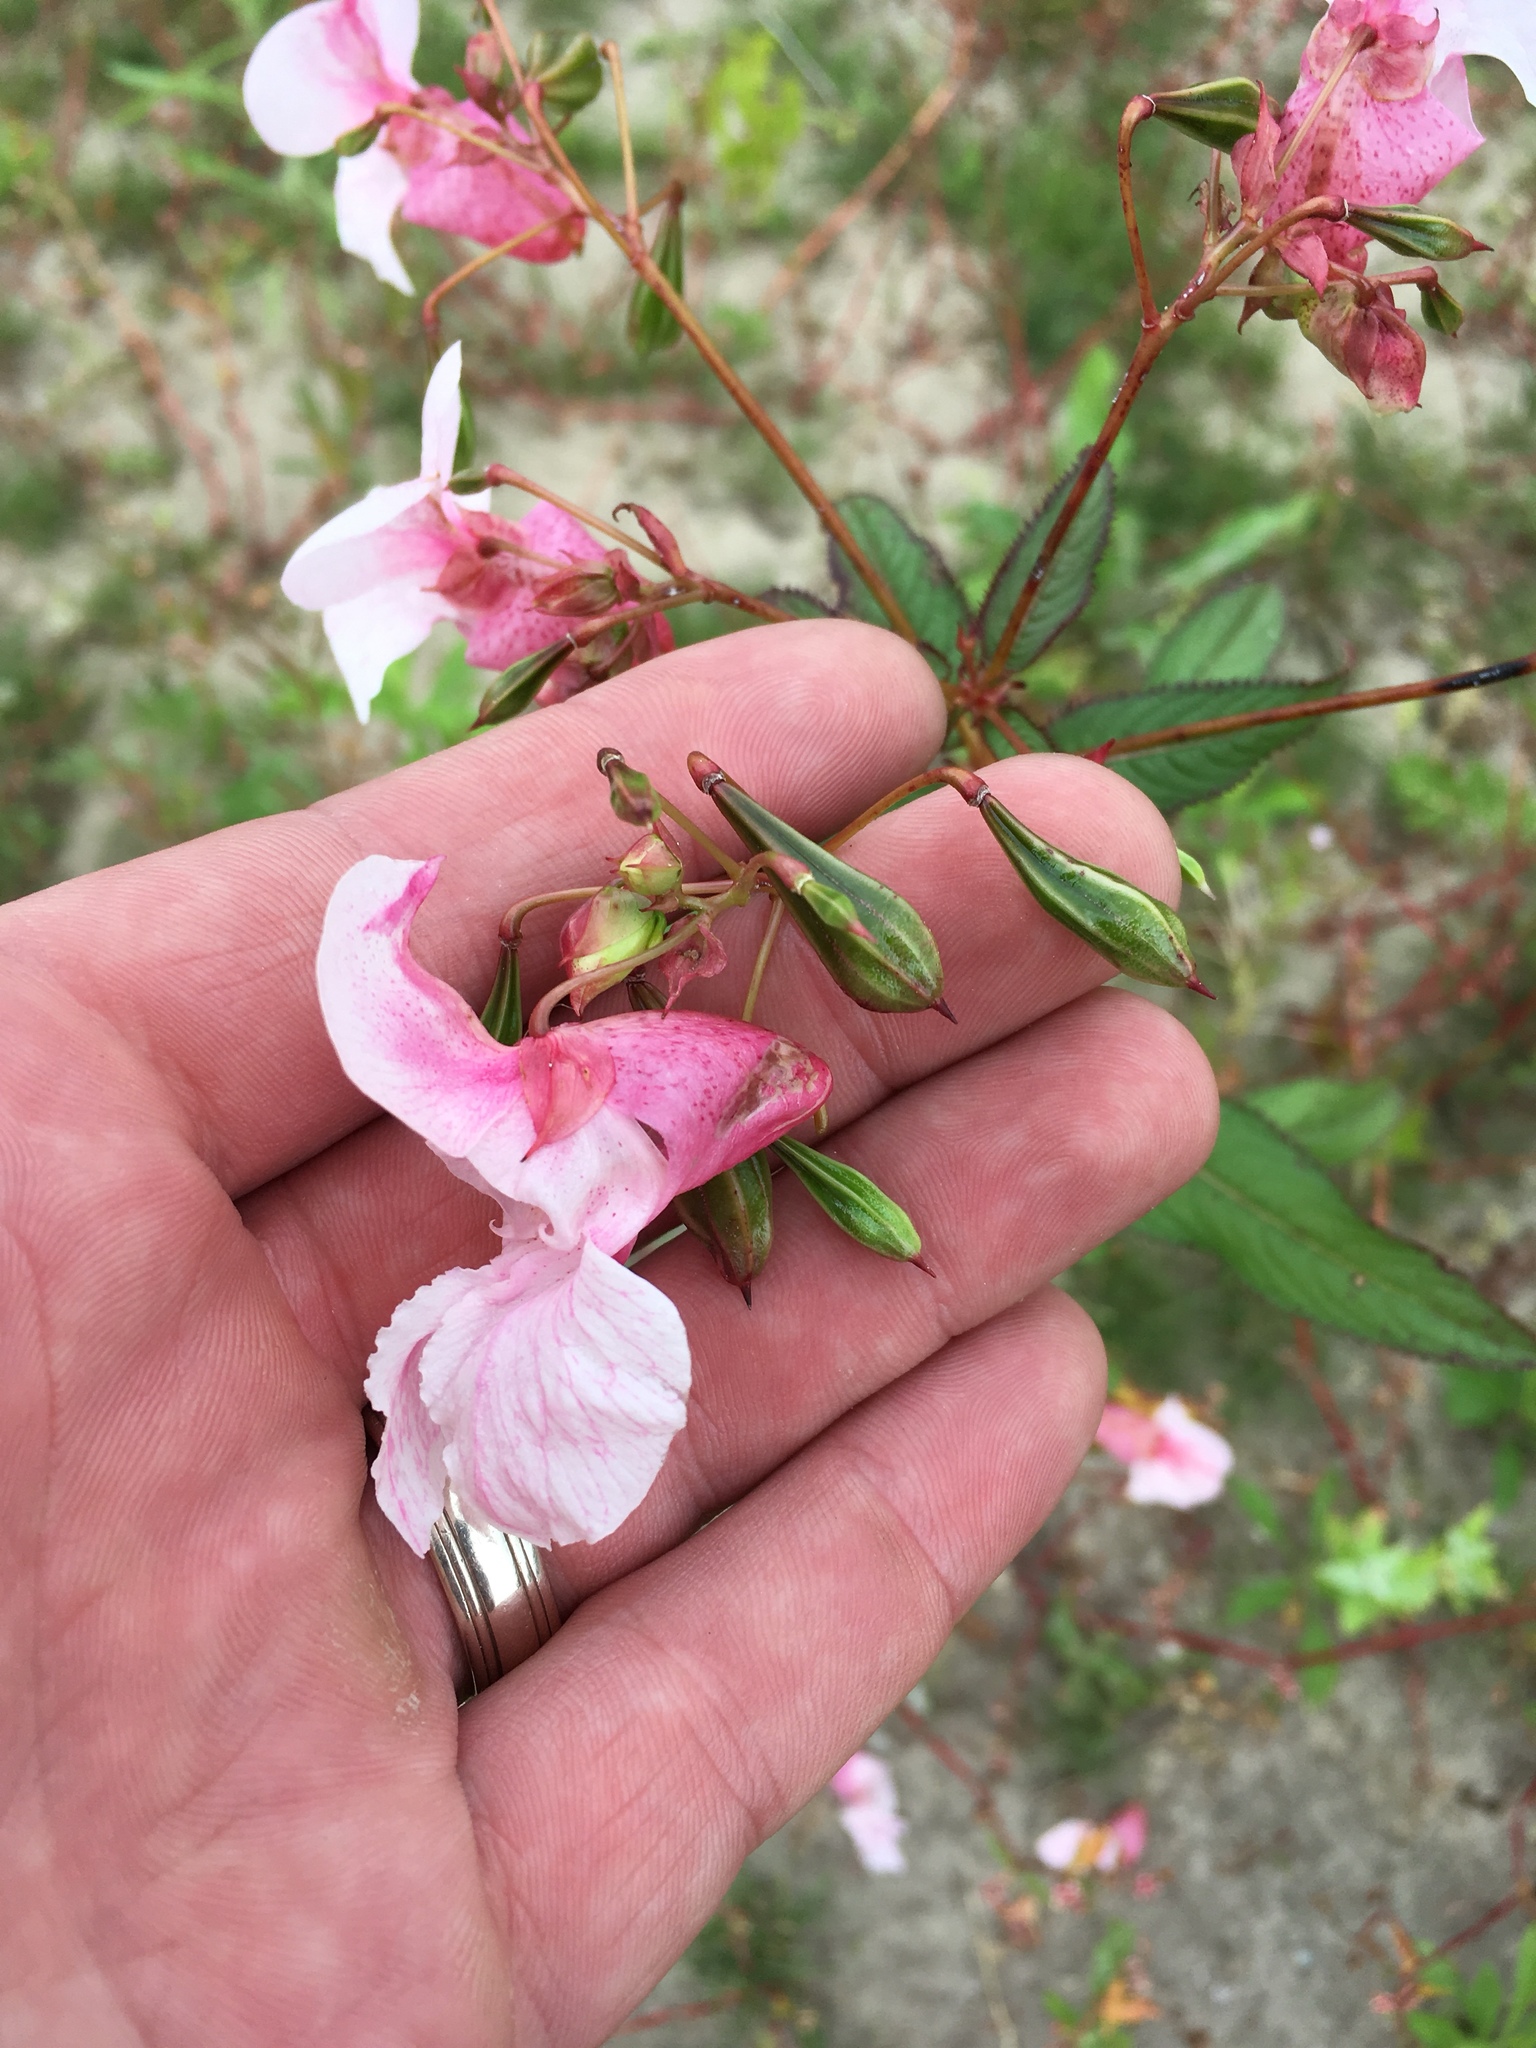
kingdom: Plantae
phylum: Tracheophyta
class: Magnoliopsida
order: Ericales
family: Balsaminaceae
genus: Impatiens
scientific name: Impatiens glandulifera
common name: Himalayan balsam
